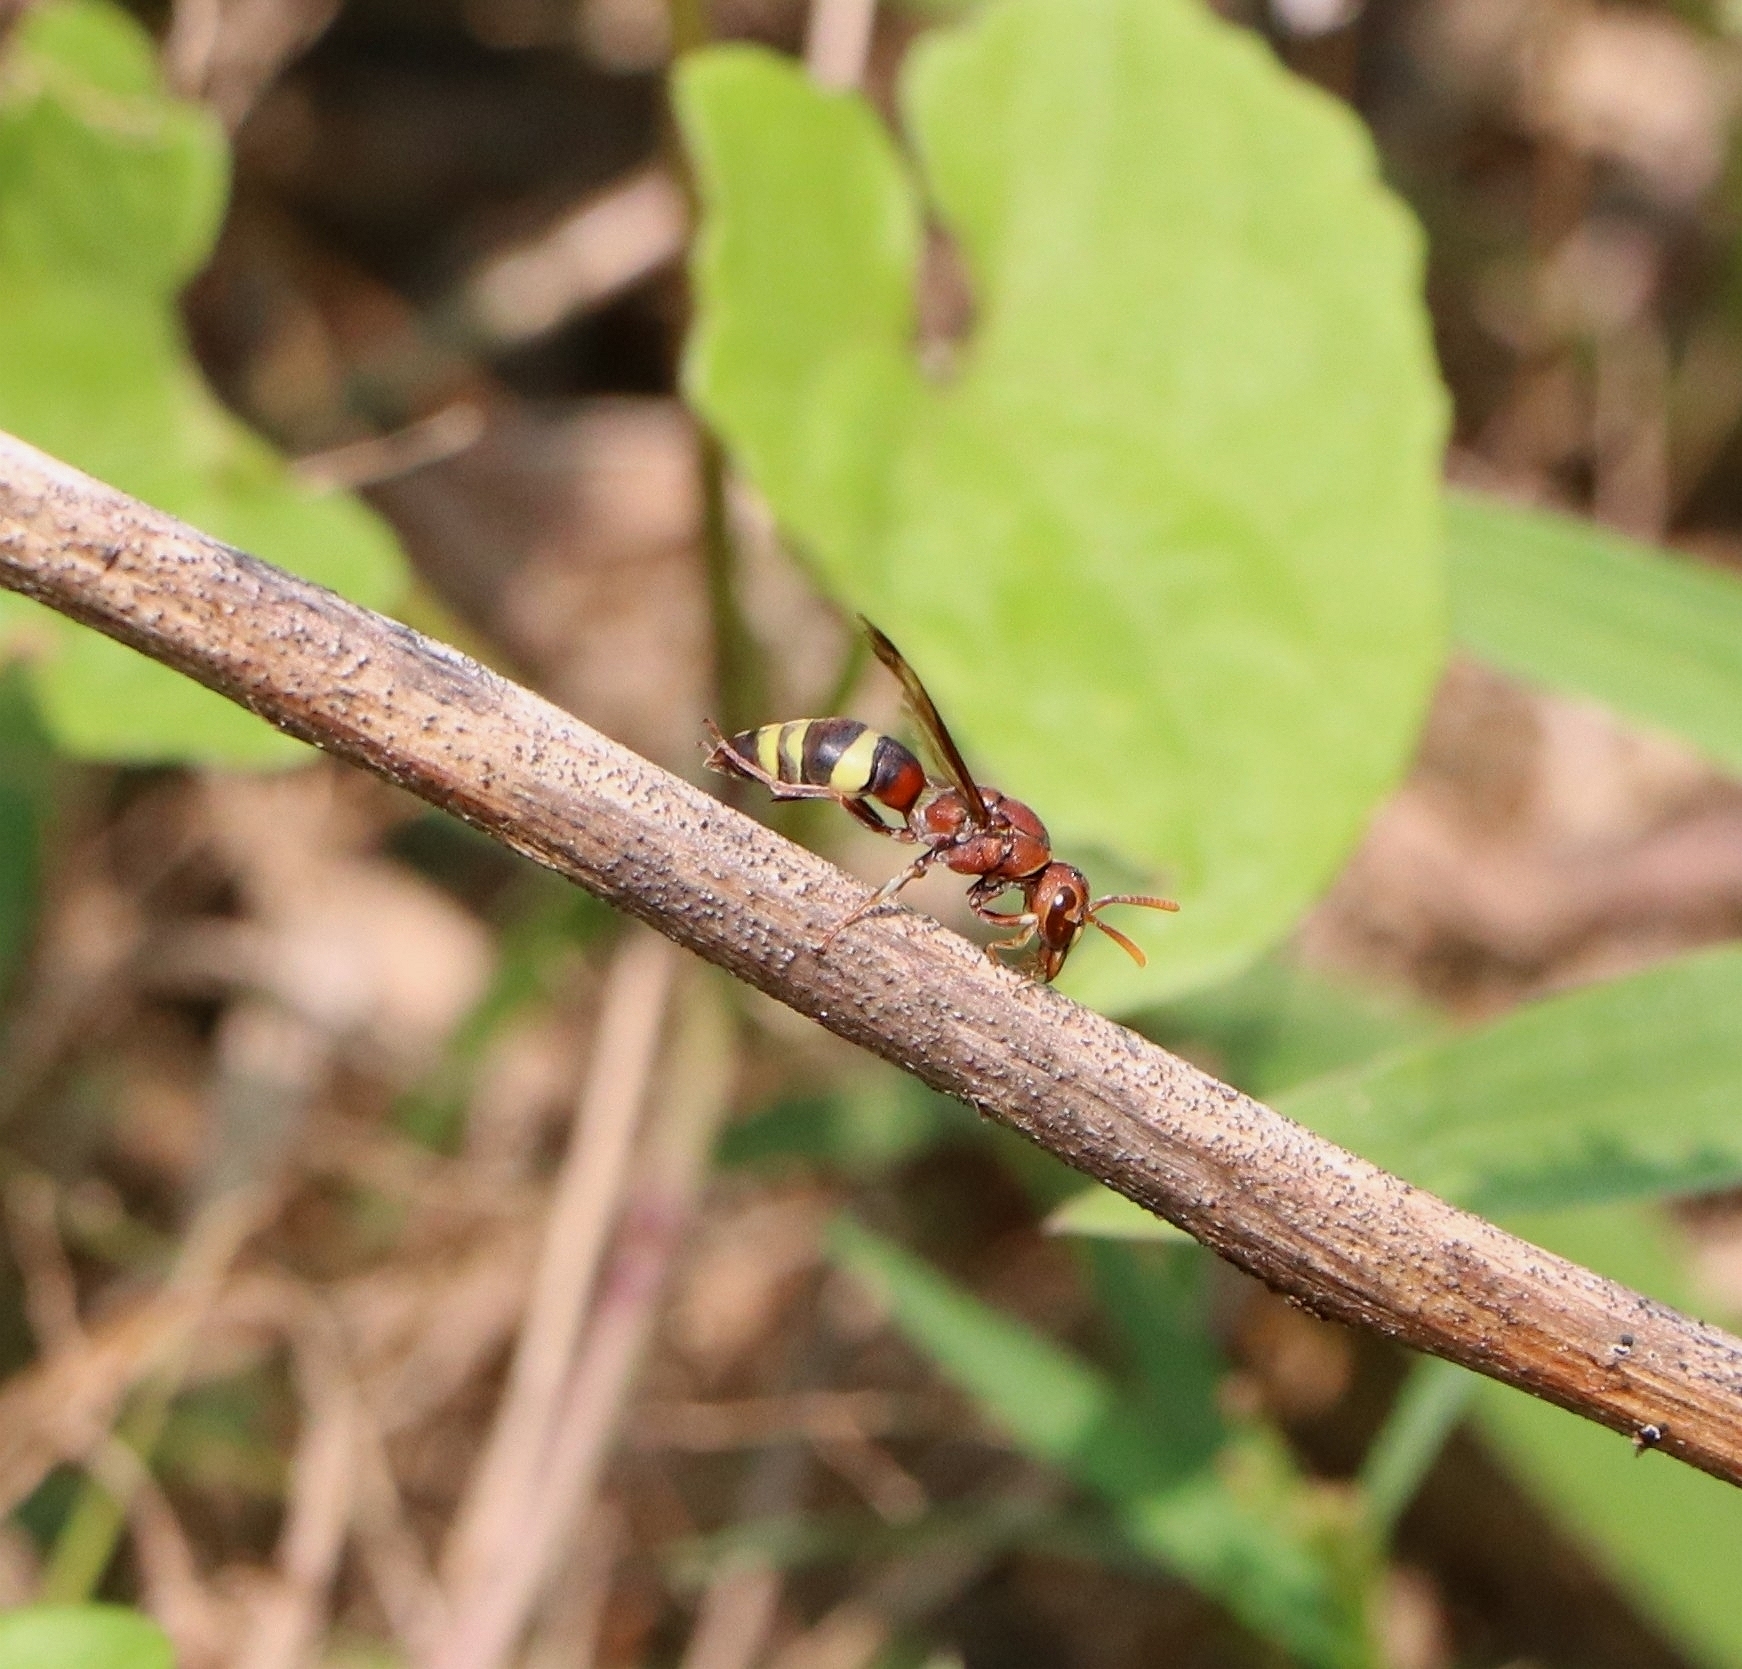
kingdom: Animalia
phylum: Arthropoda
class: Insecta
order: Hymenoptera
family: Eumenidae
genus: Antodynerus
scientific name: Antodynerus punctatipennis
